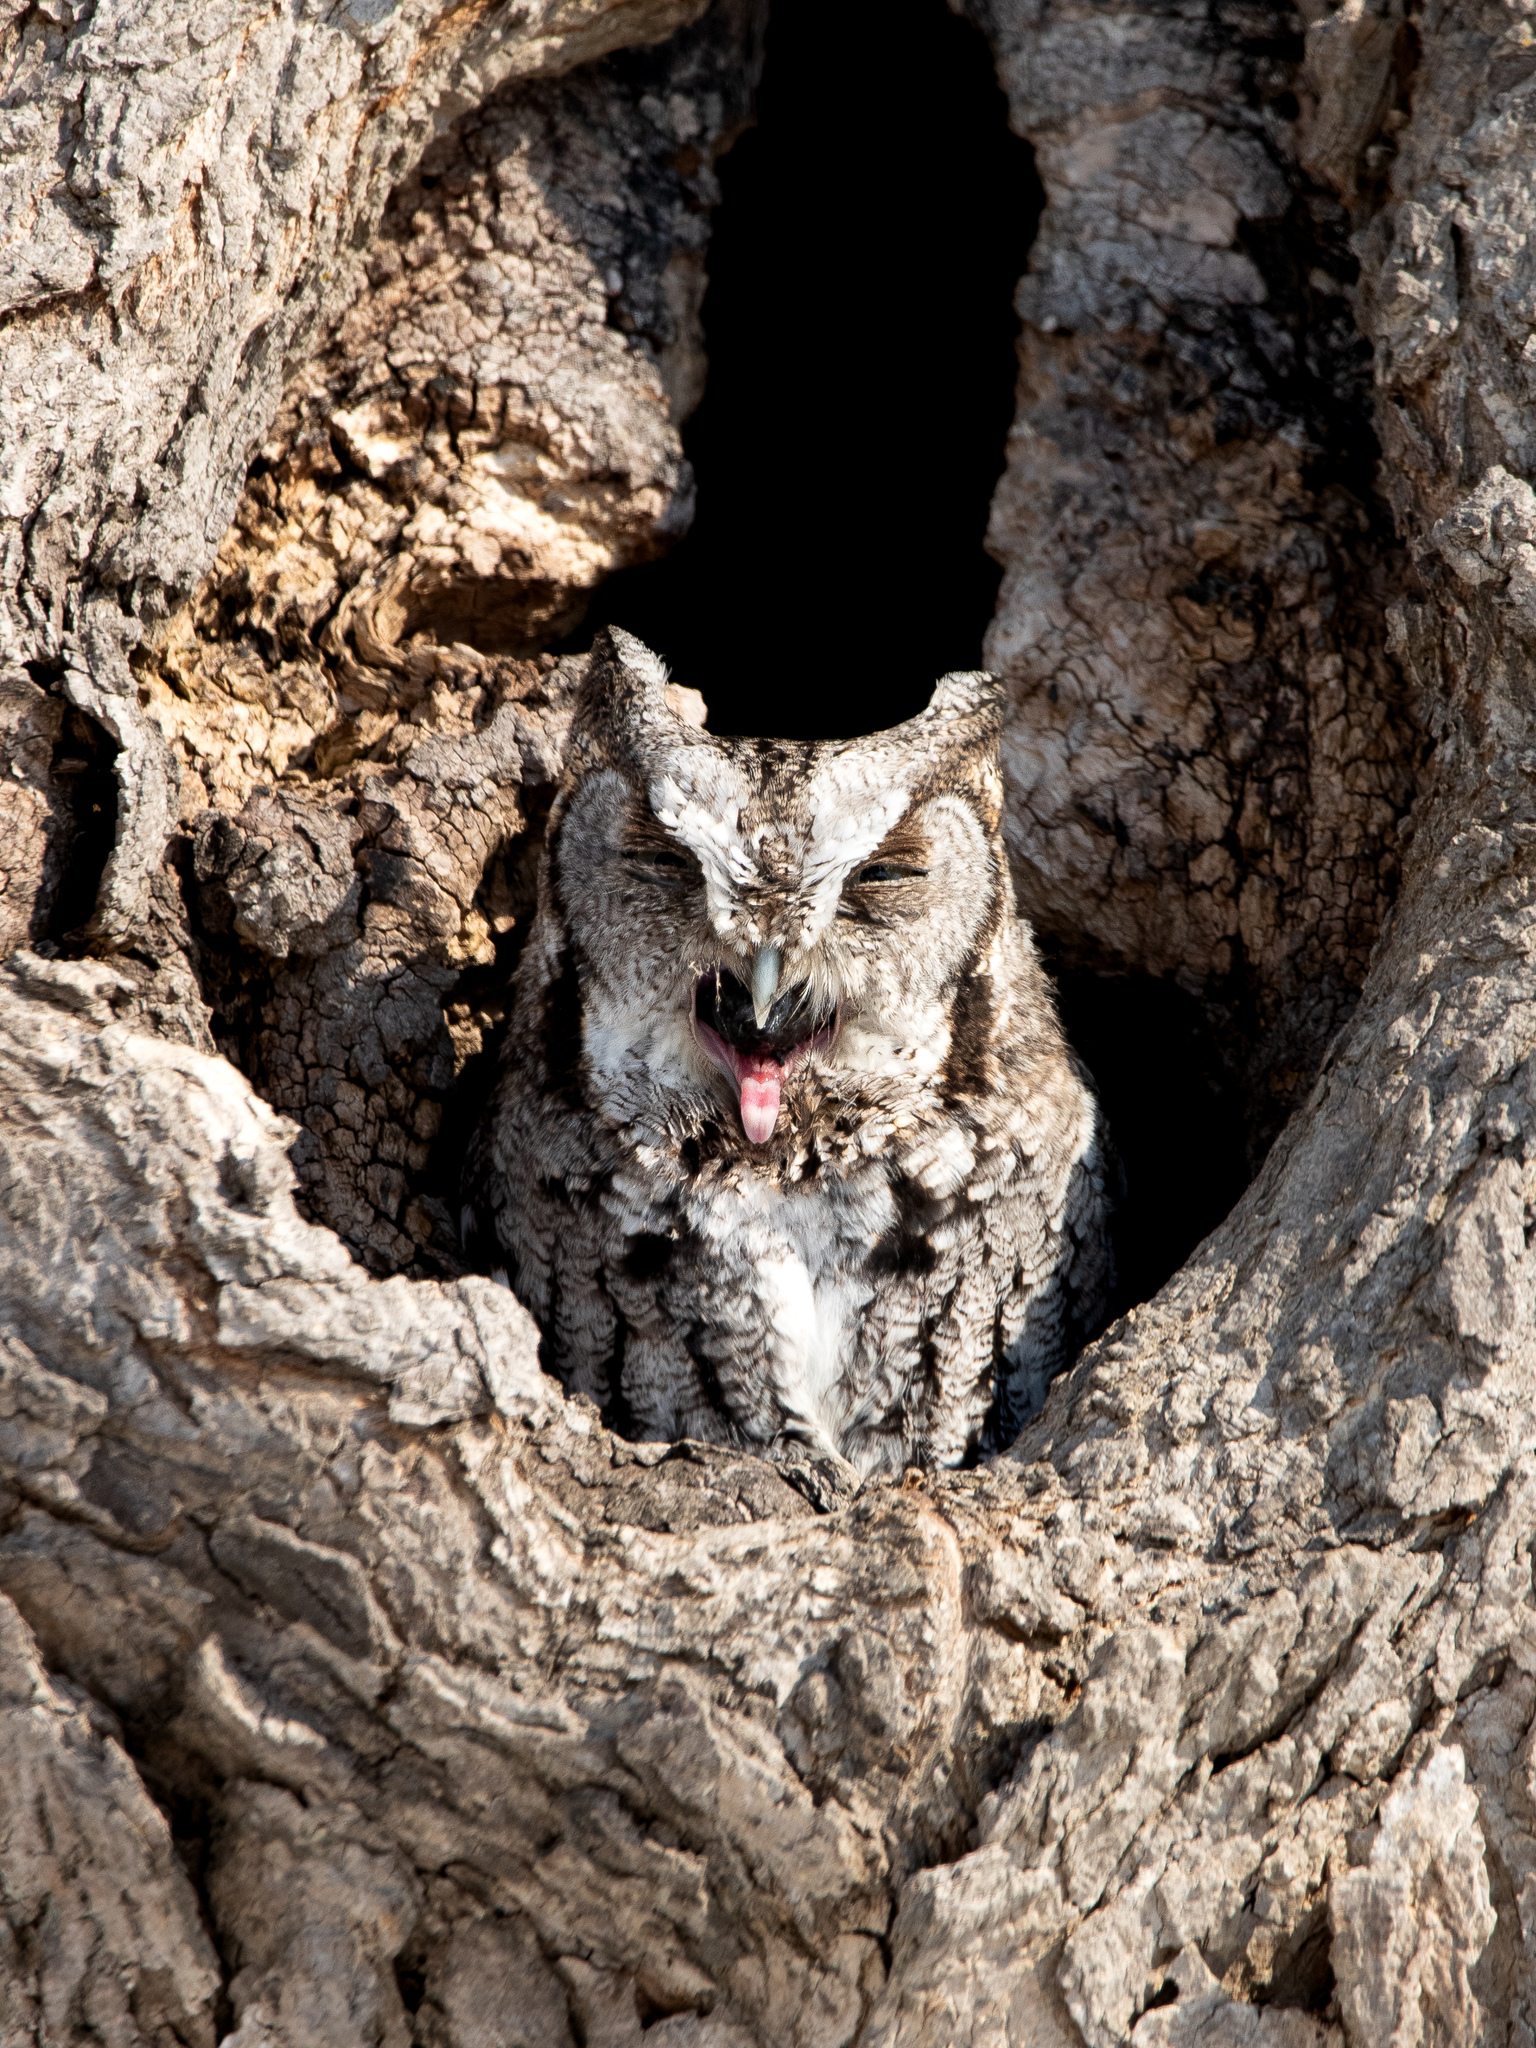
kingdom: Animalia
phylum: Chordata
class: Aves
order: Strigiformes
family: Strigidae
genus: Megascops
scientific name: Megascops asio
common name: Eastern screech-owl
